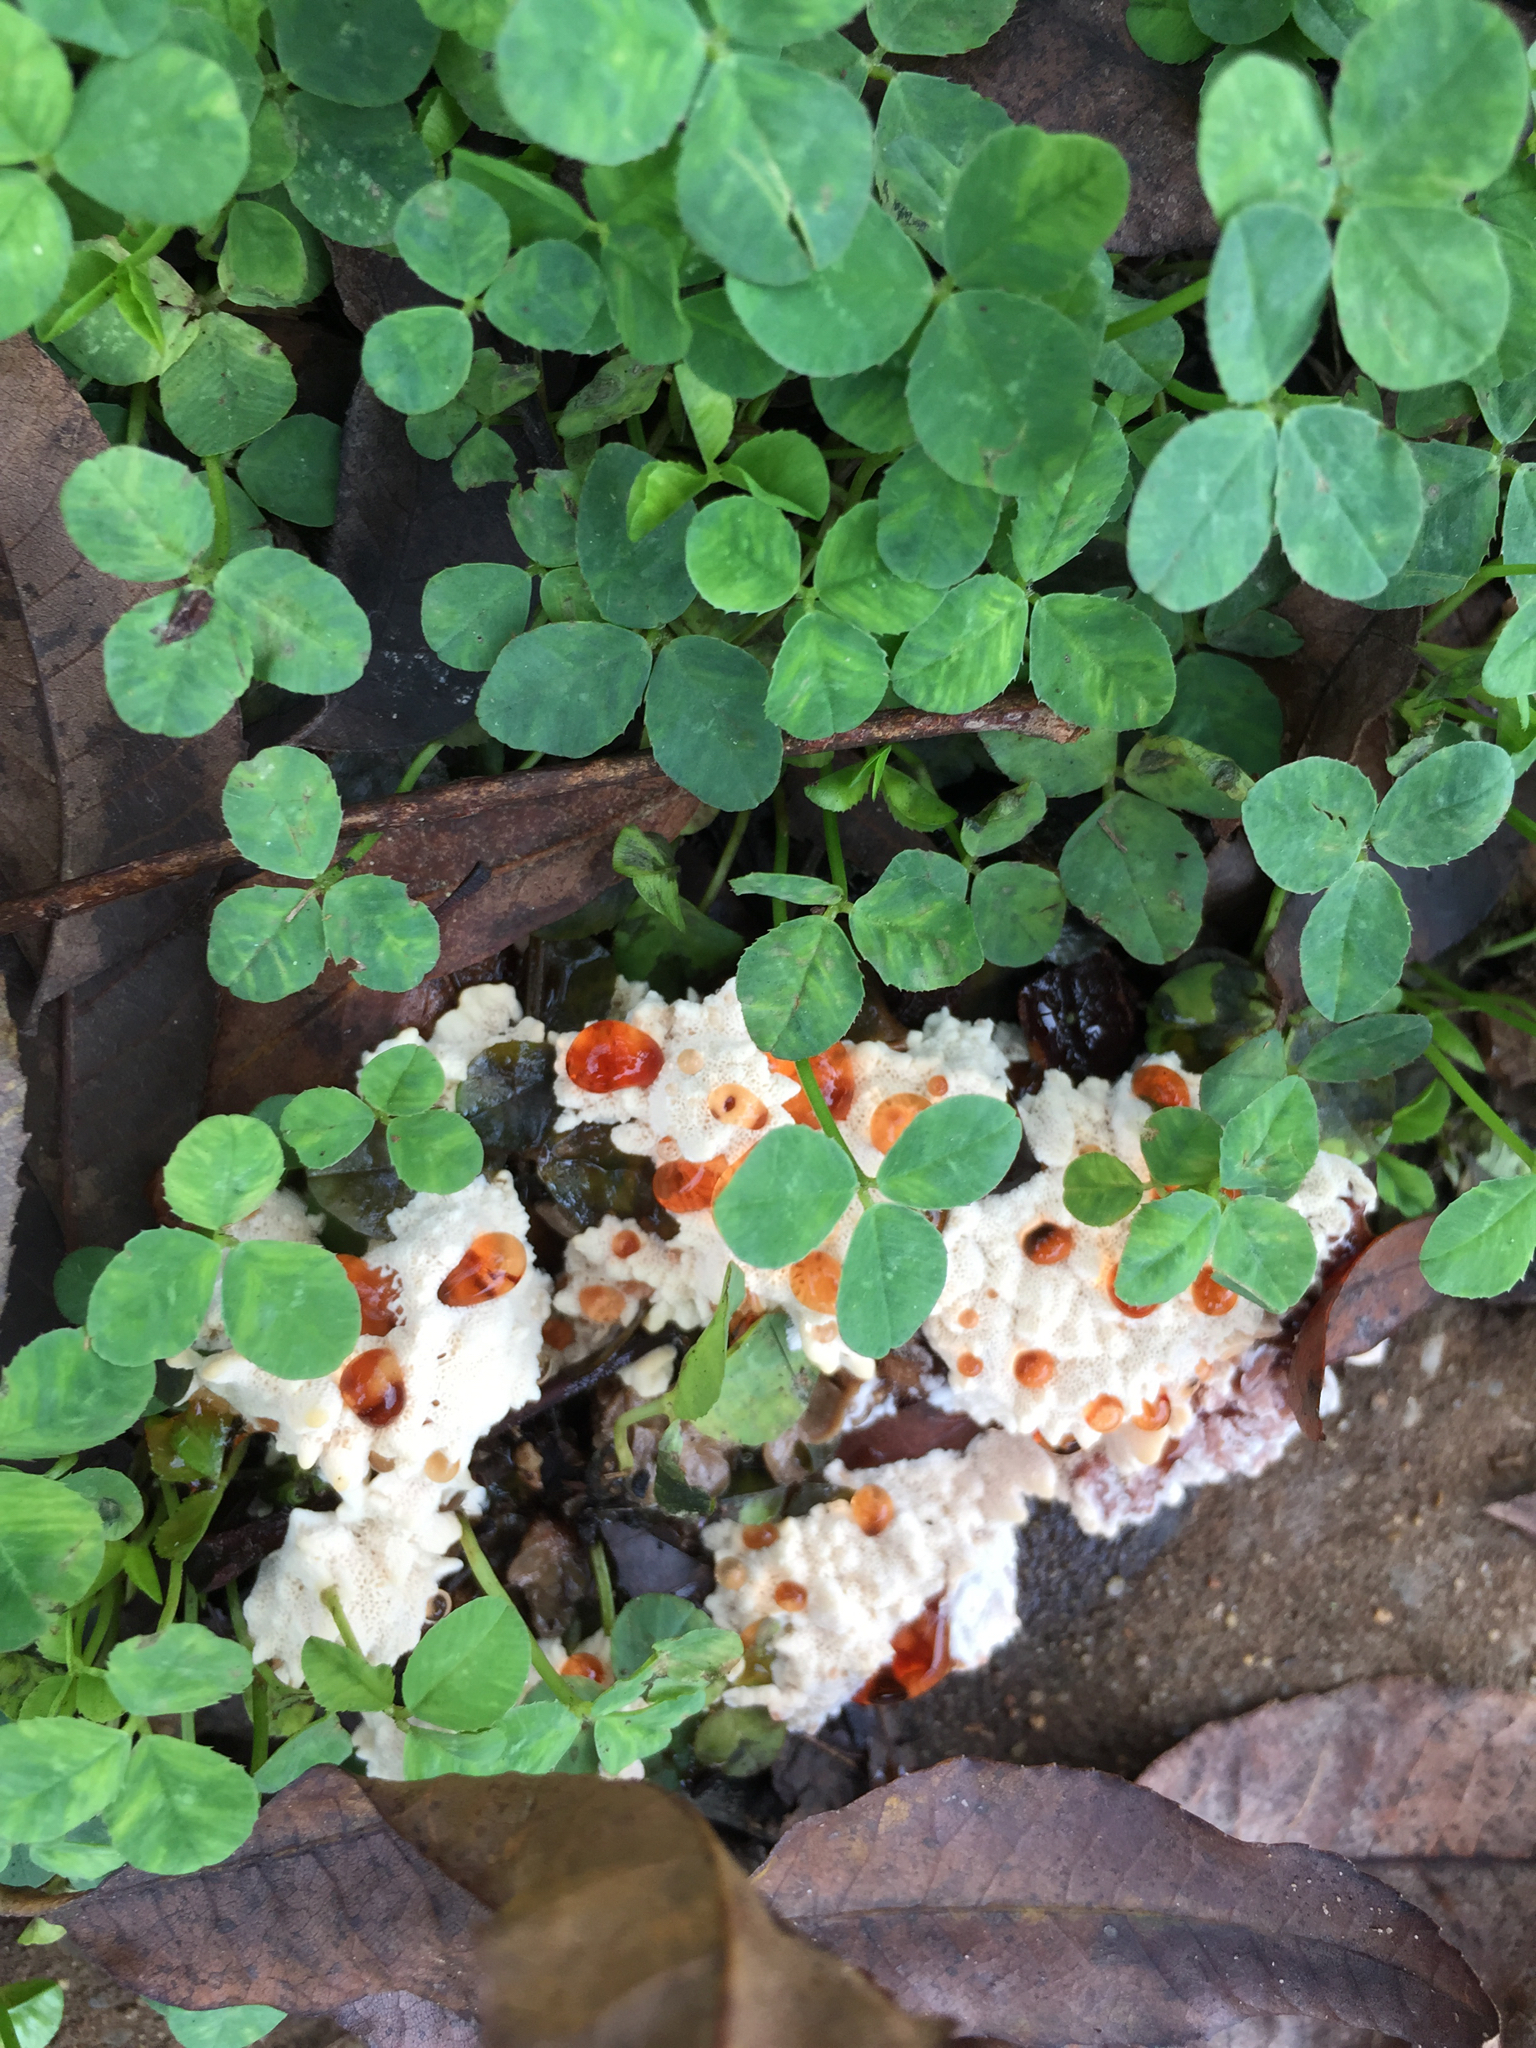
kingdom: Fungi
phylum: Basidiomycota
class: Agaricomycetes
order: Polyporales
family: Podoscyphaceae
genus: Abortiporus
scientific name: Abortiporus biennis
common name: Blushing rosette
